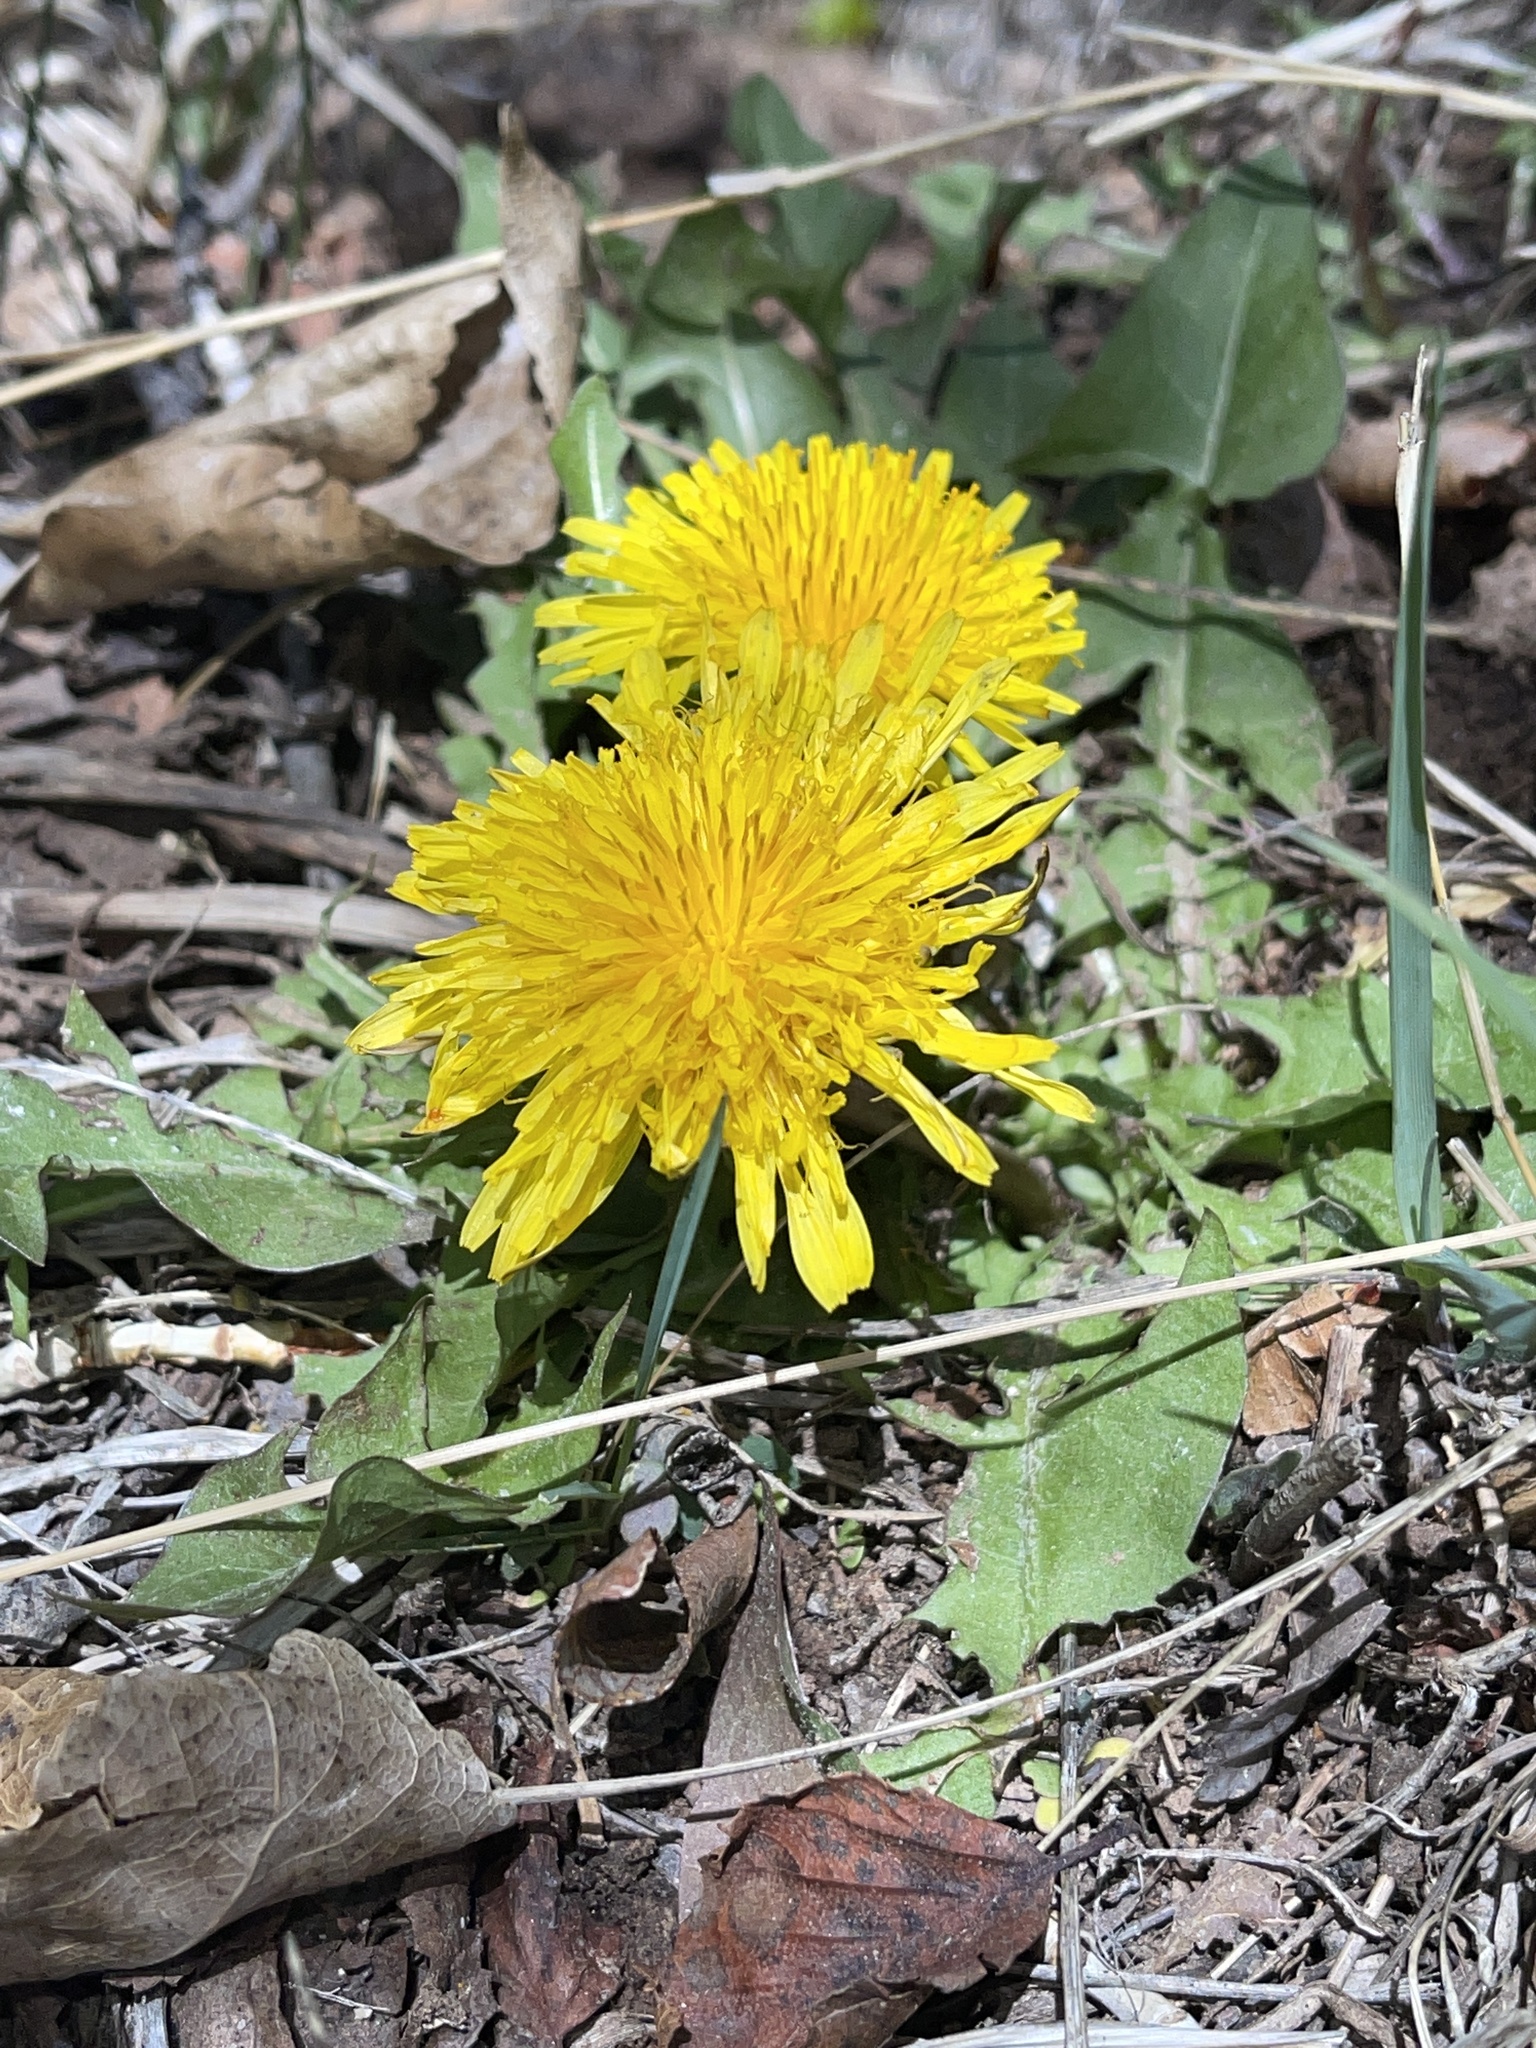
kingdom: Plantae
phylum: Tracheophyta
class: Magnoliopsida
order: Asterales
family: Asteraceae
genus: Taraxacum
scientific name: Taraxacum officinale
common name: Common dandelion
